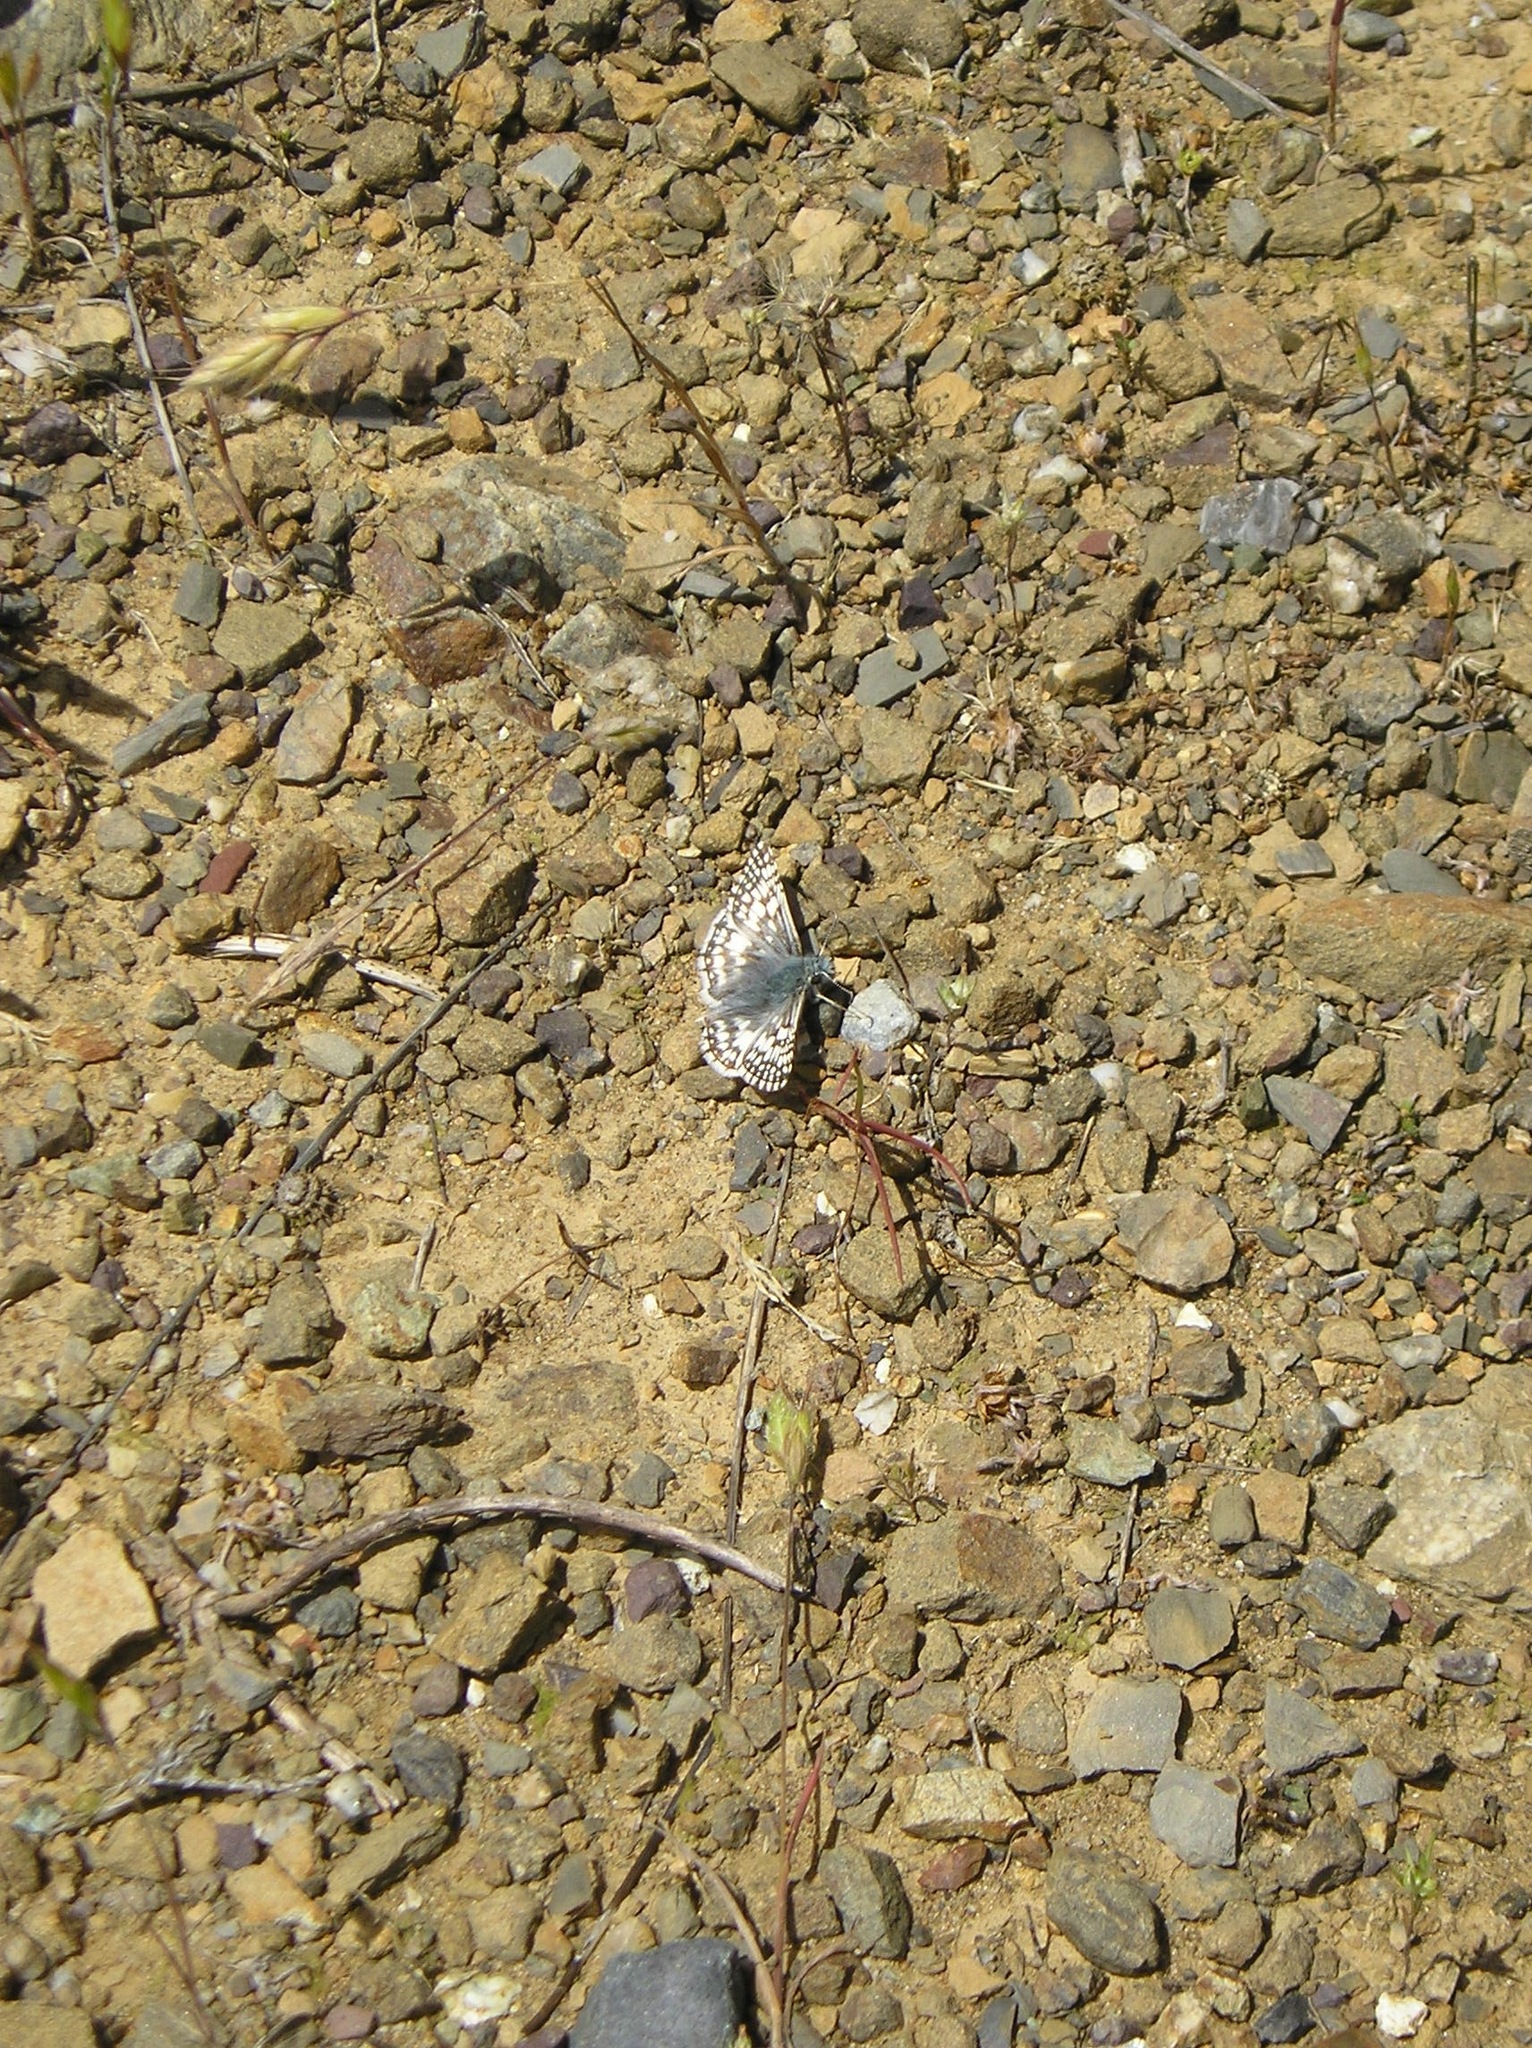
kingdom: Animalia
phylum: Arthropoda
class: Insecta
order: Lepidoptera
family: Hesperiidae
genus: Burnsius
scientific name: Burnsius communis
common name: Common checkered-skipper
